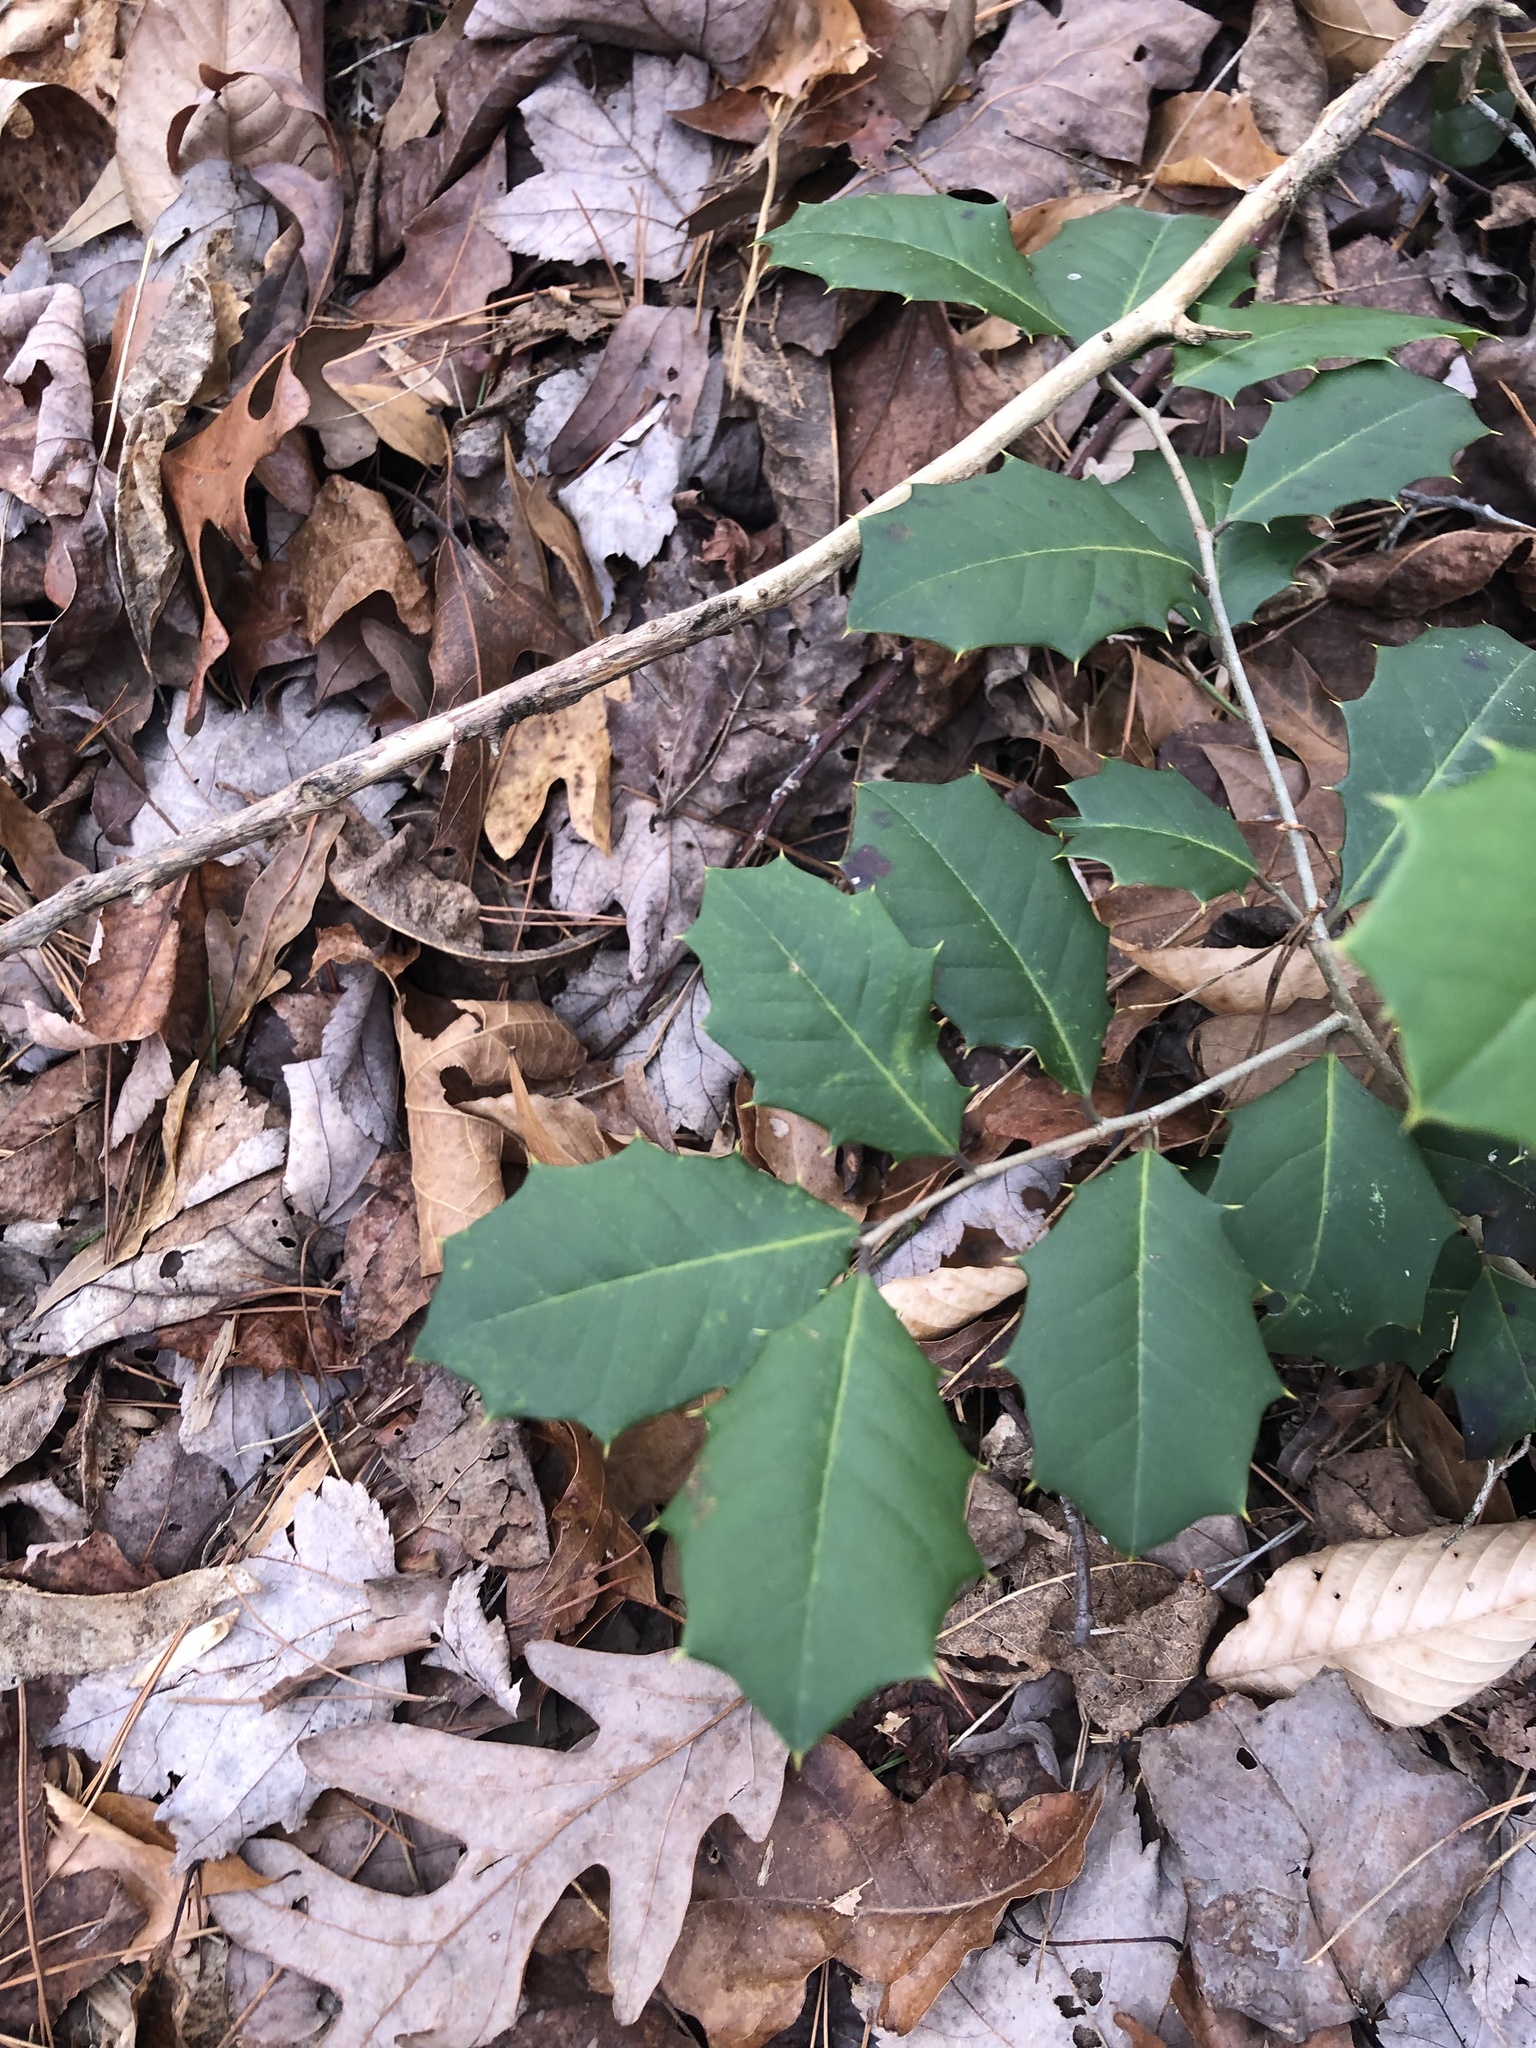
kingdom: Plantae
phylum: Tracheophyta
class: Magnoliopsida
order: Aquifoliales
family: Aquifoliaceae
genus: Ilex
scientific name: Ilex opaca
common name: American holly
